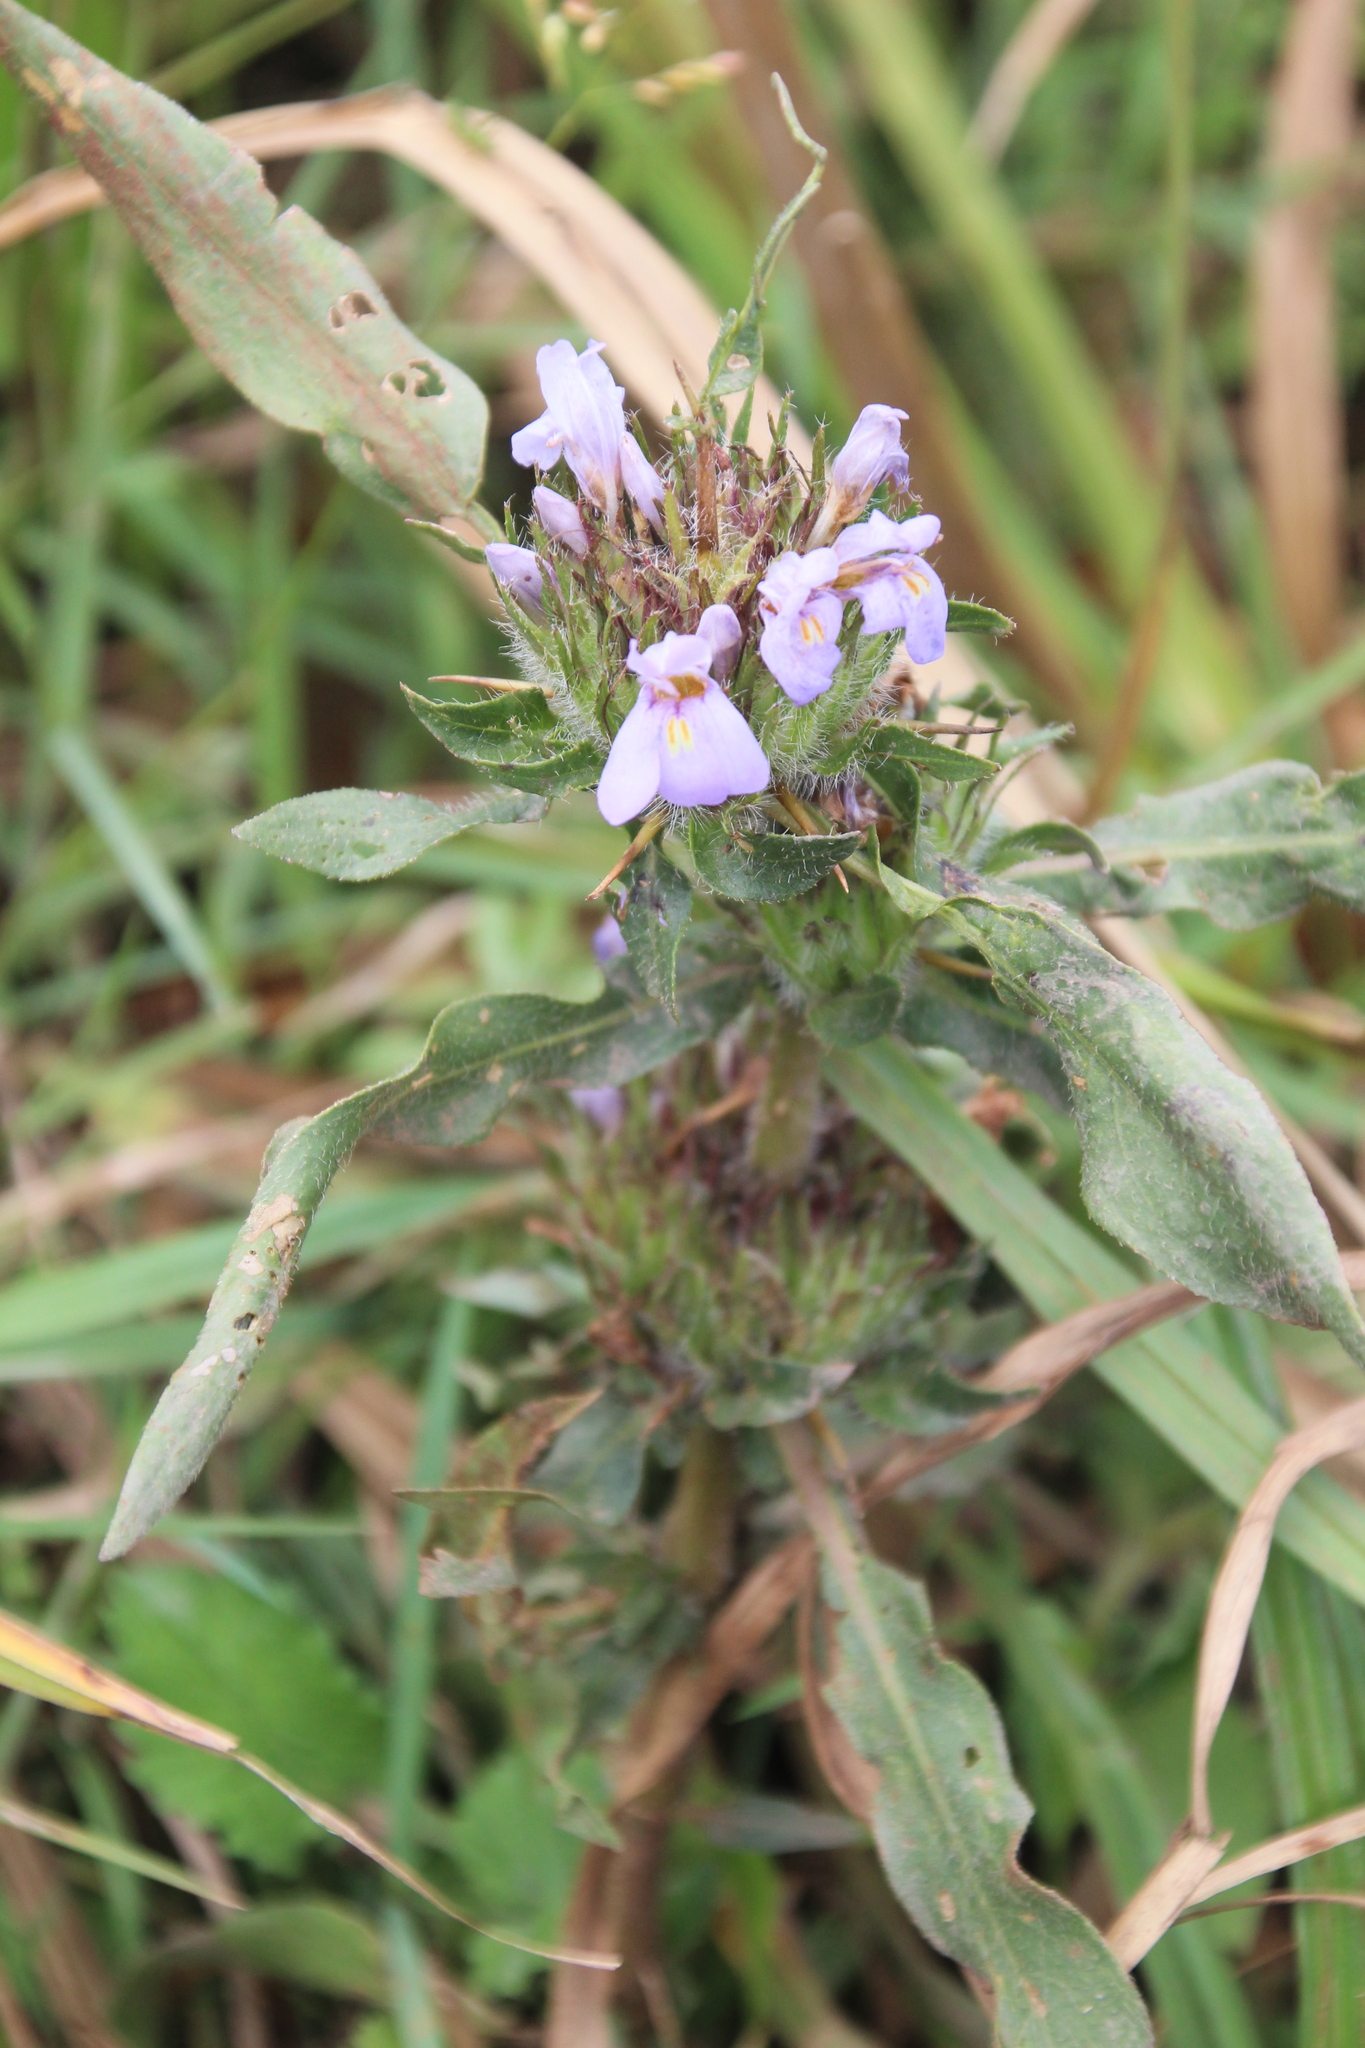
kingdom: Plantae
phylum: Tracheophyta
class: Magnoliopsida
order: Lamiales
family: Acanthaceae
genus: Hygrophila
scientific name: Hygrophila auriculata
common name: Hygrophila
